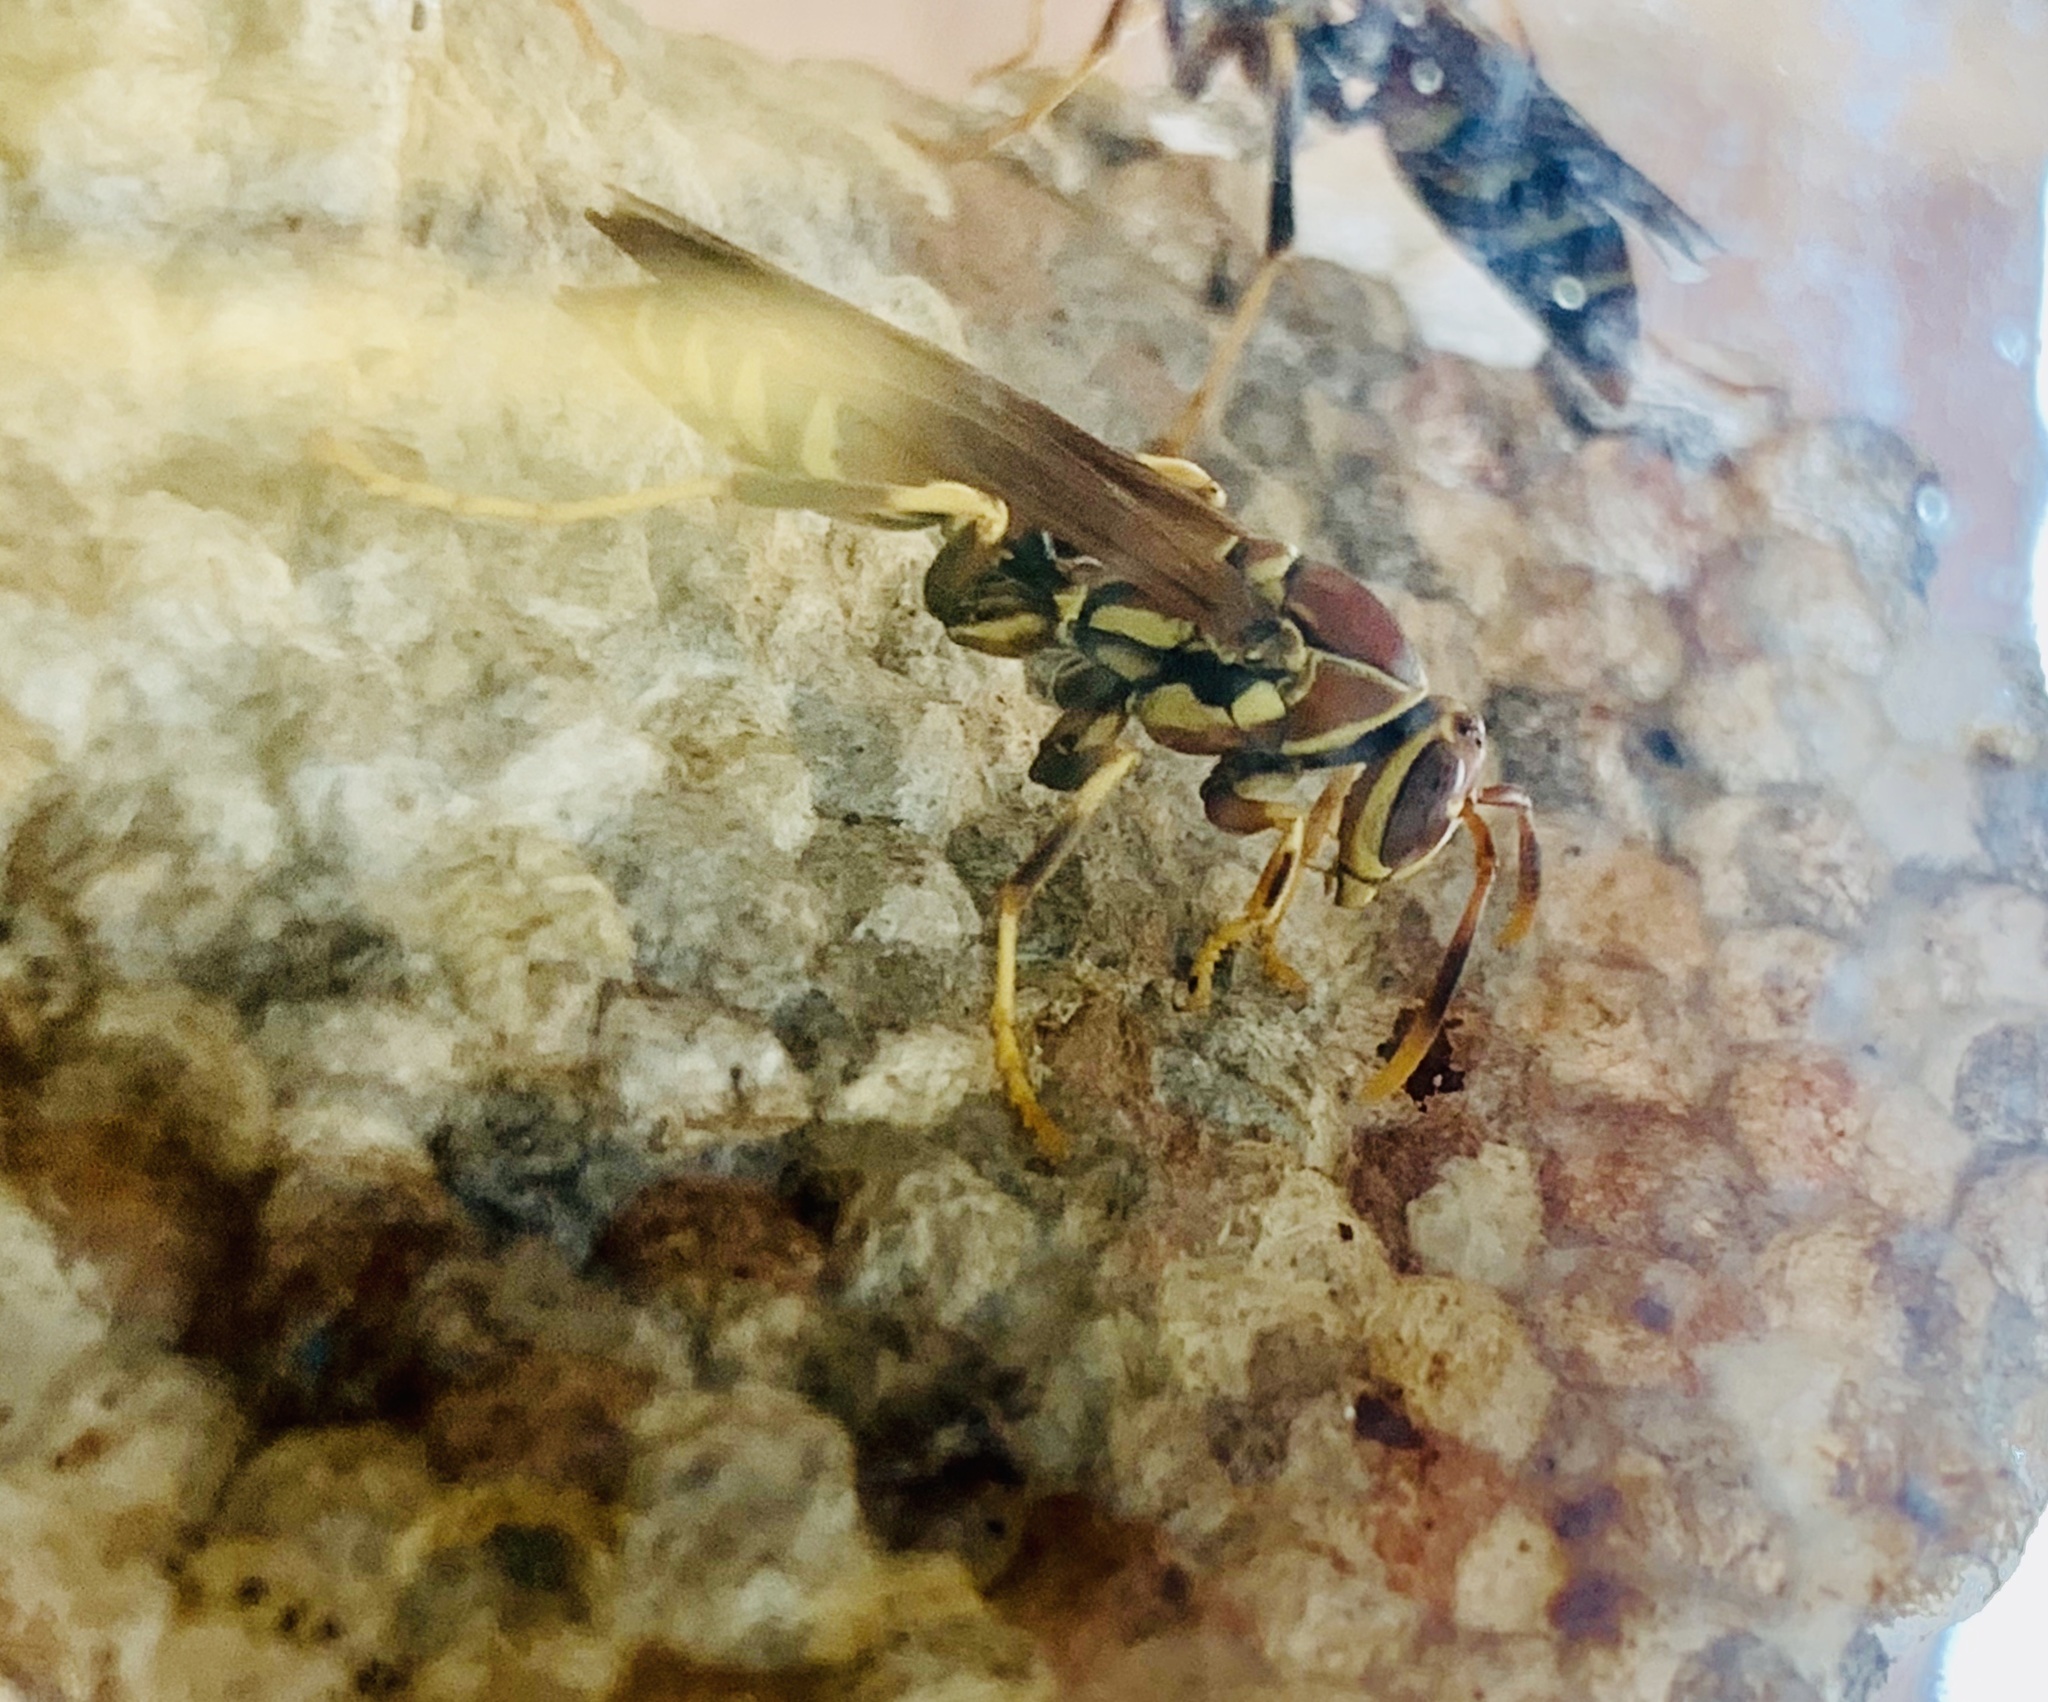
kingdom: Animalia
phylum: Arthropoda
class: Insecta
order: Hymenoptera
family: Eumenidae
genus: Polistes
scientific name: Polistes exclamans
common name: Paper wasp
